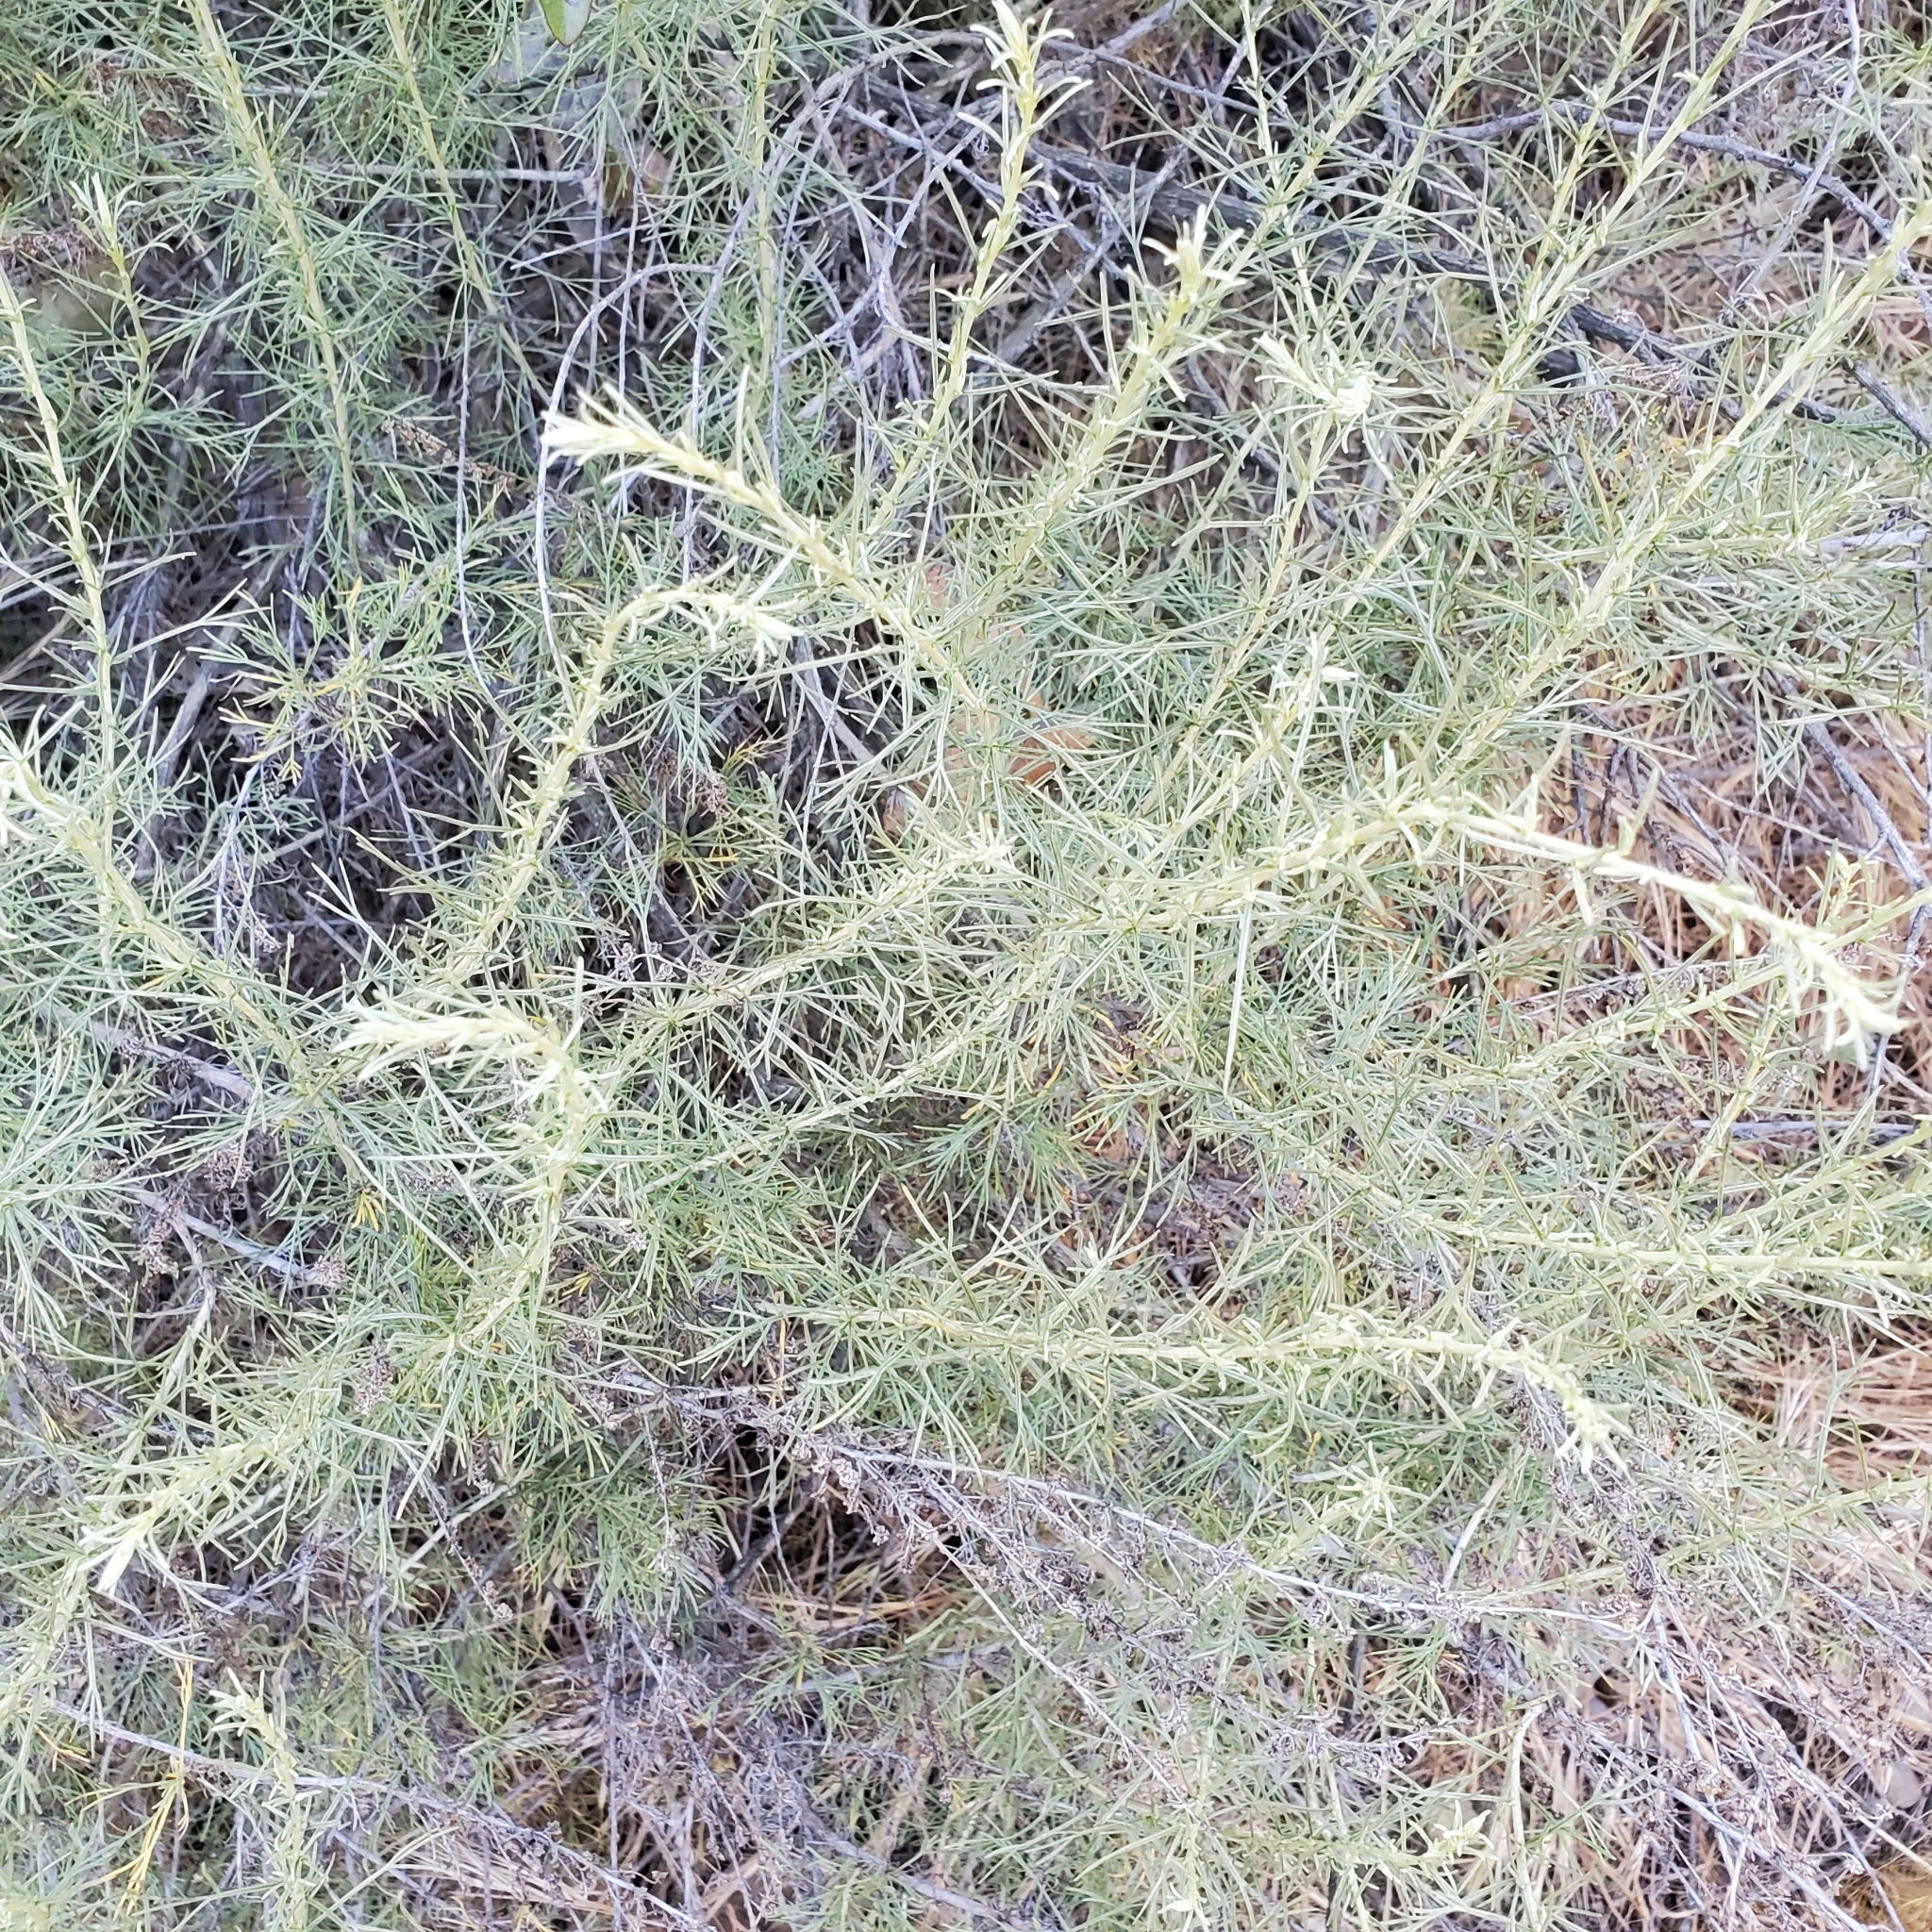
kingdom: Plantae
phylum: Tracheophyta
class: Magnoliopsida
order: Asterales
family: Asteraceae
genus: Artemisia
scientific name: Artemisia californica
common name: California sagebrush
